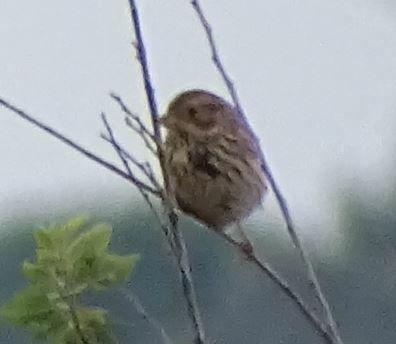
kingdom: Animalia
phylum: Chordata
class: Aves
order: Passeriformes
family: Emberizidae
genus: Emberiza
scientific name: Emberiza calandra
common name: Corn bunting
